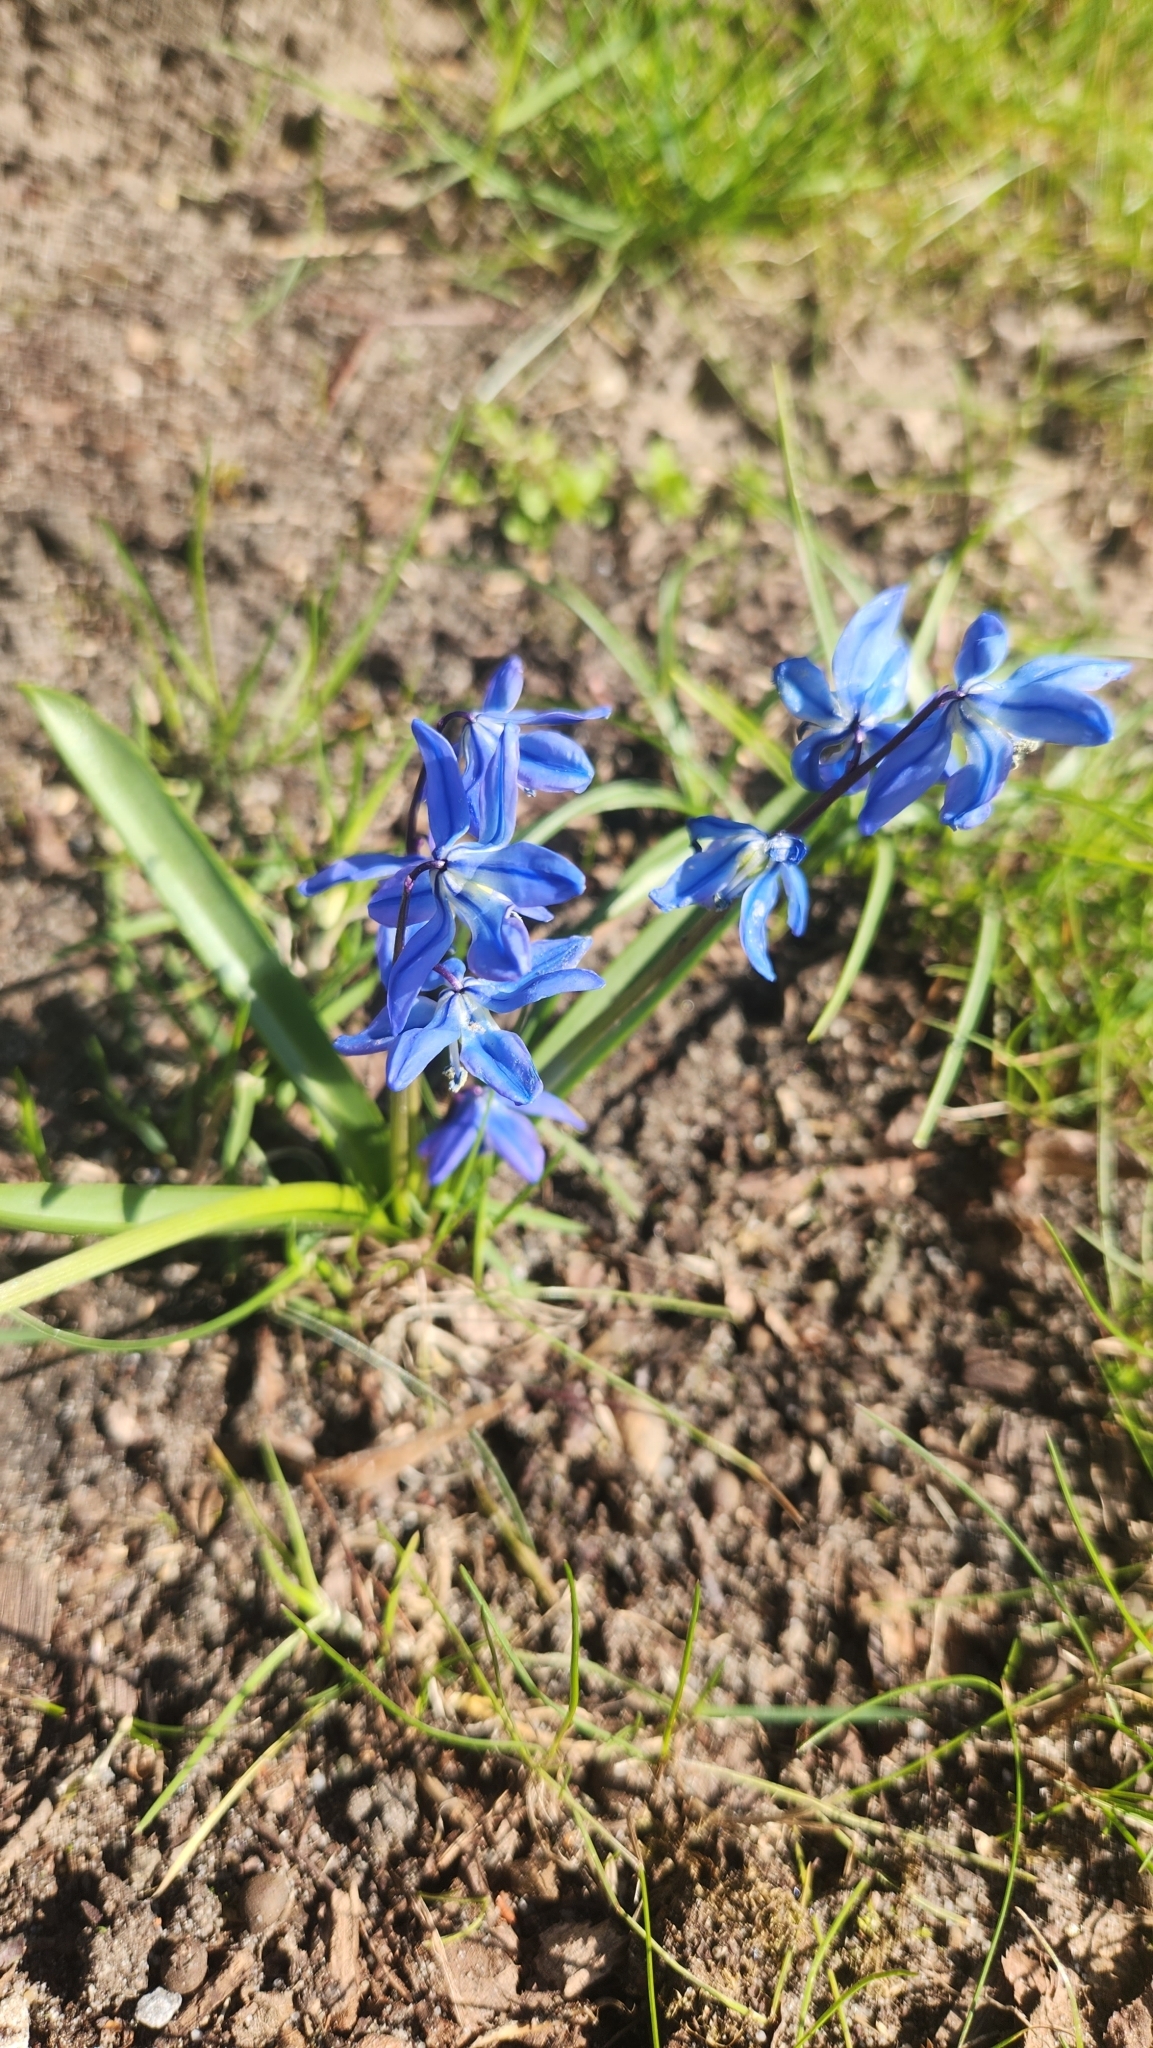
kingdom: Plantae
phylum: Tracheophyta
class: Liliopsida
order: Asparagales
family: Asparagaceae
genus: Scilla
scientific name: Scilla siberica
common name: Siberian squill
